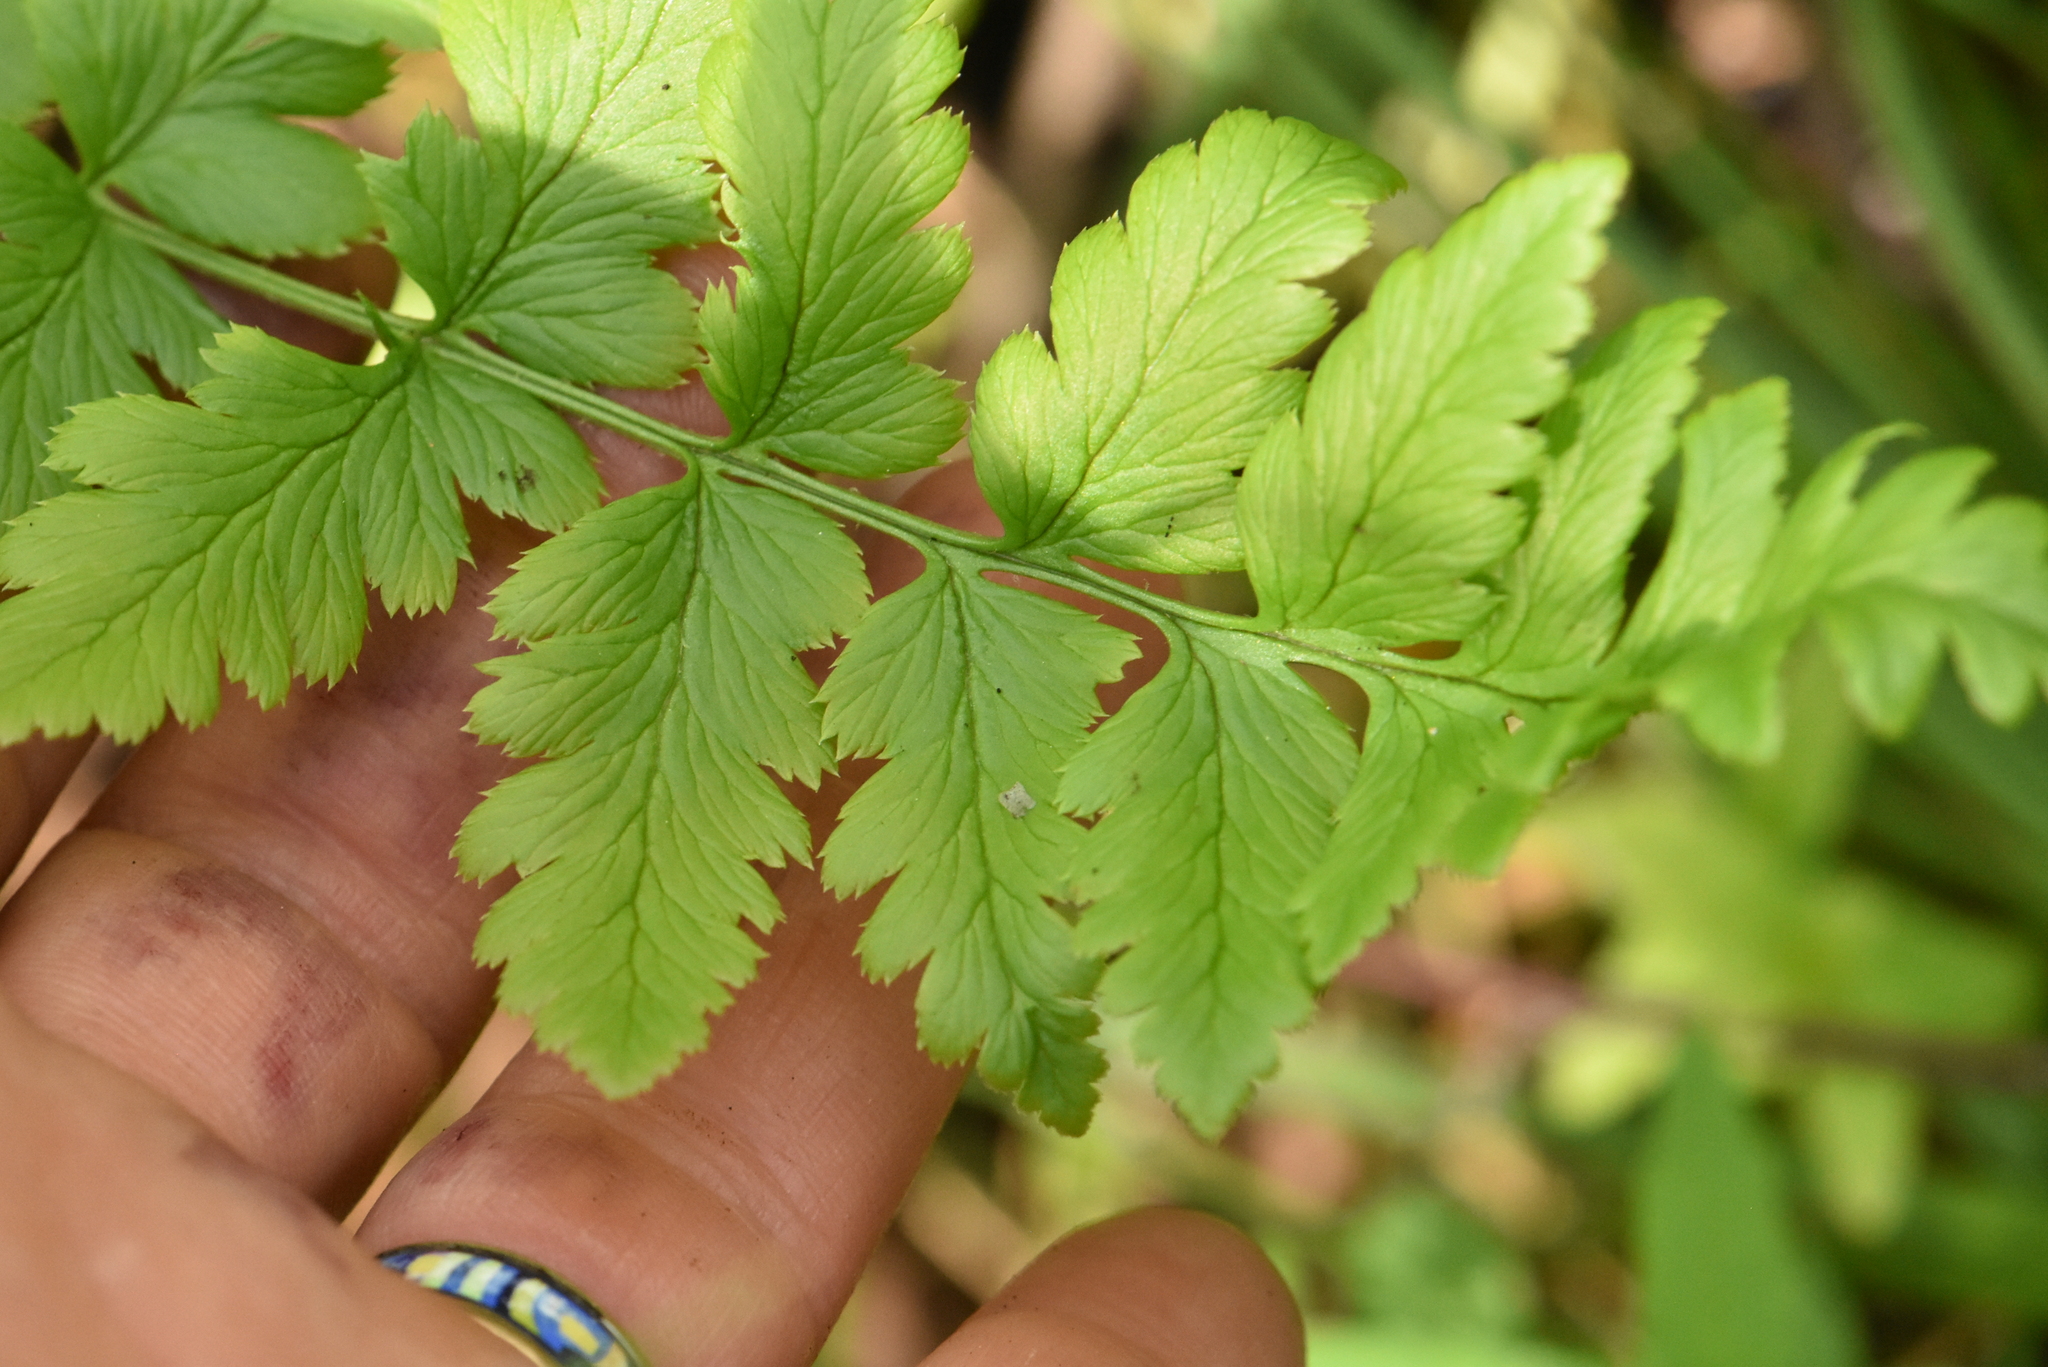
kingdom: Plantae
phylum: Tracheophyta
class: Polypodiopsida
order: Polypodiales
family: Dryopteridaceae
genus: Dryopteris
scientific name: Dryopteris cristata
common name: Crested wood fern
